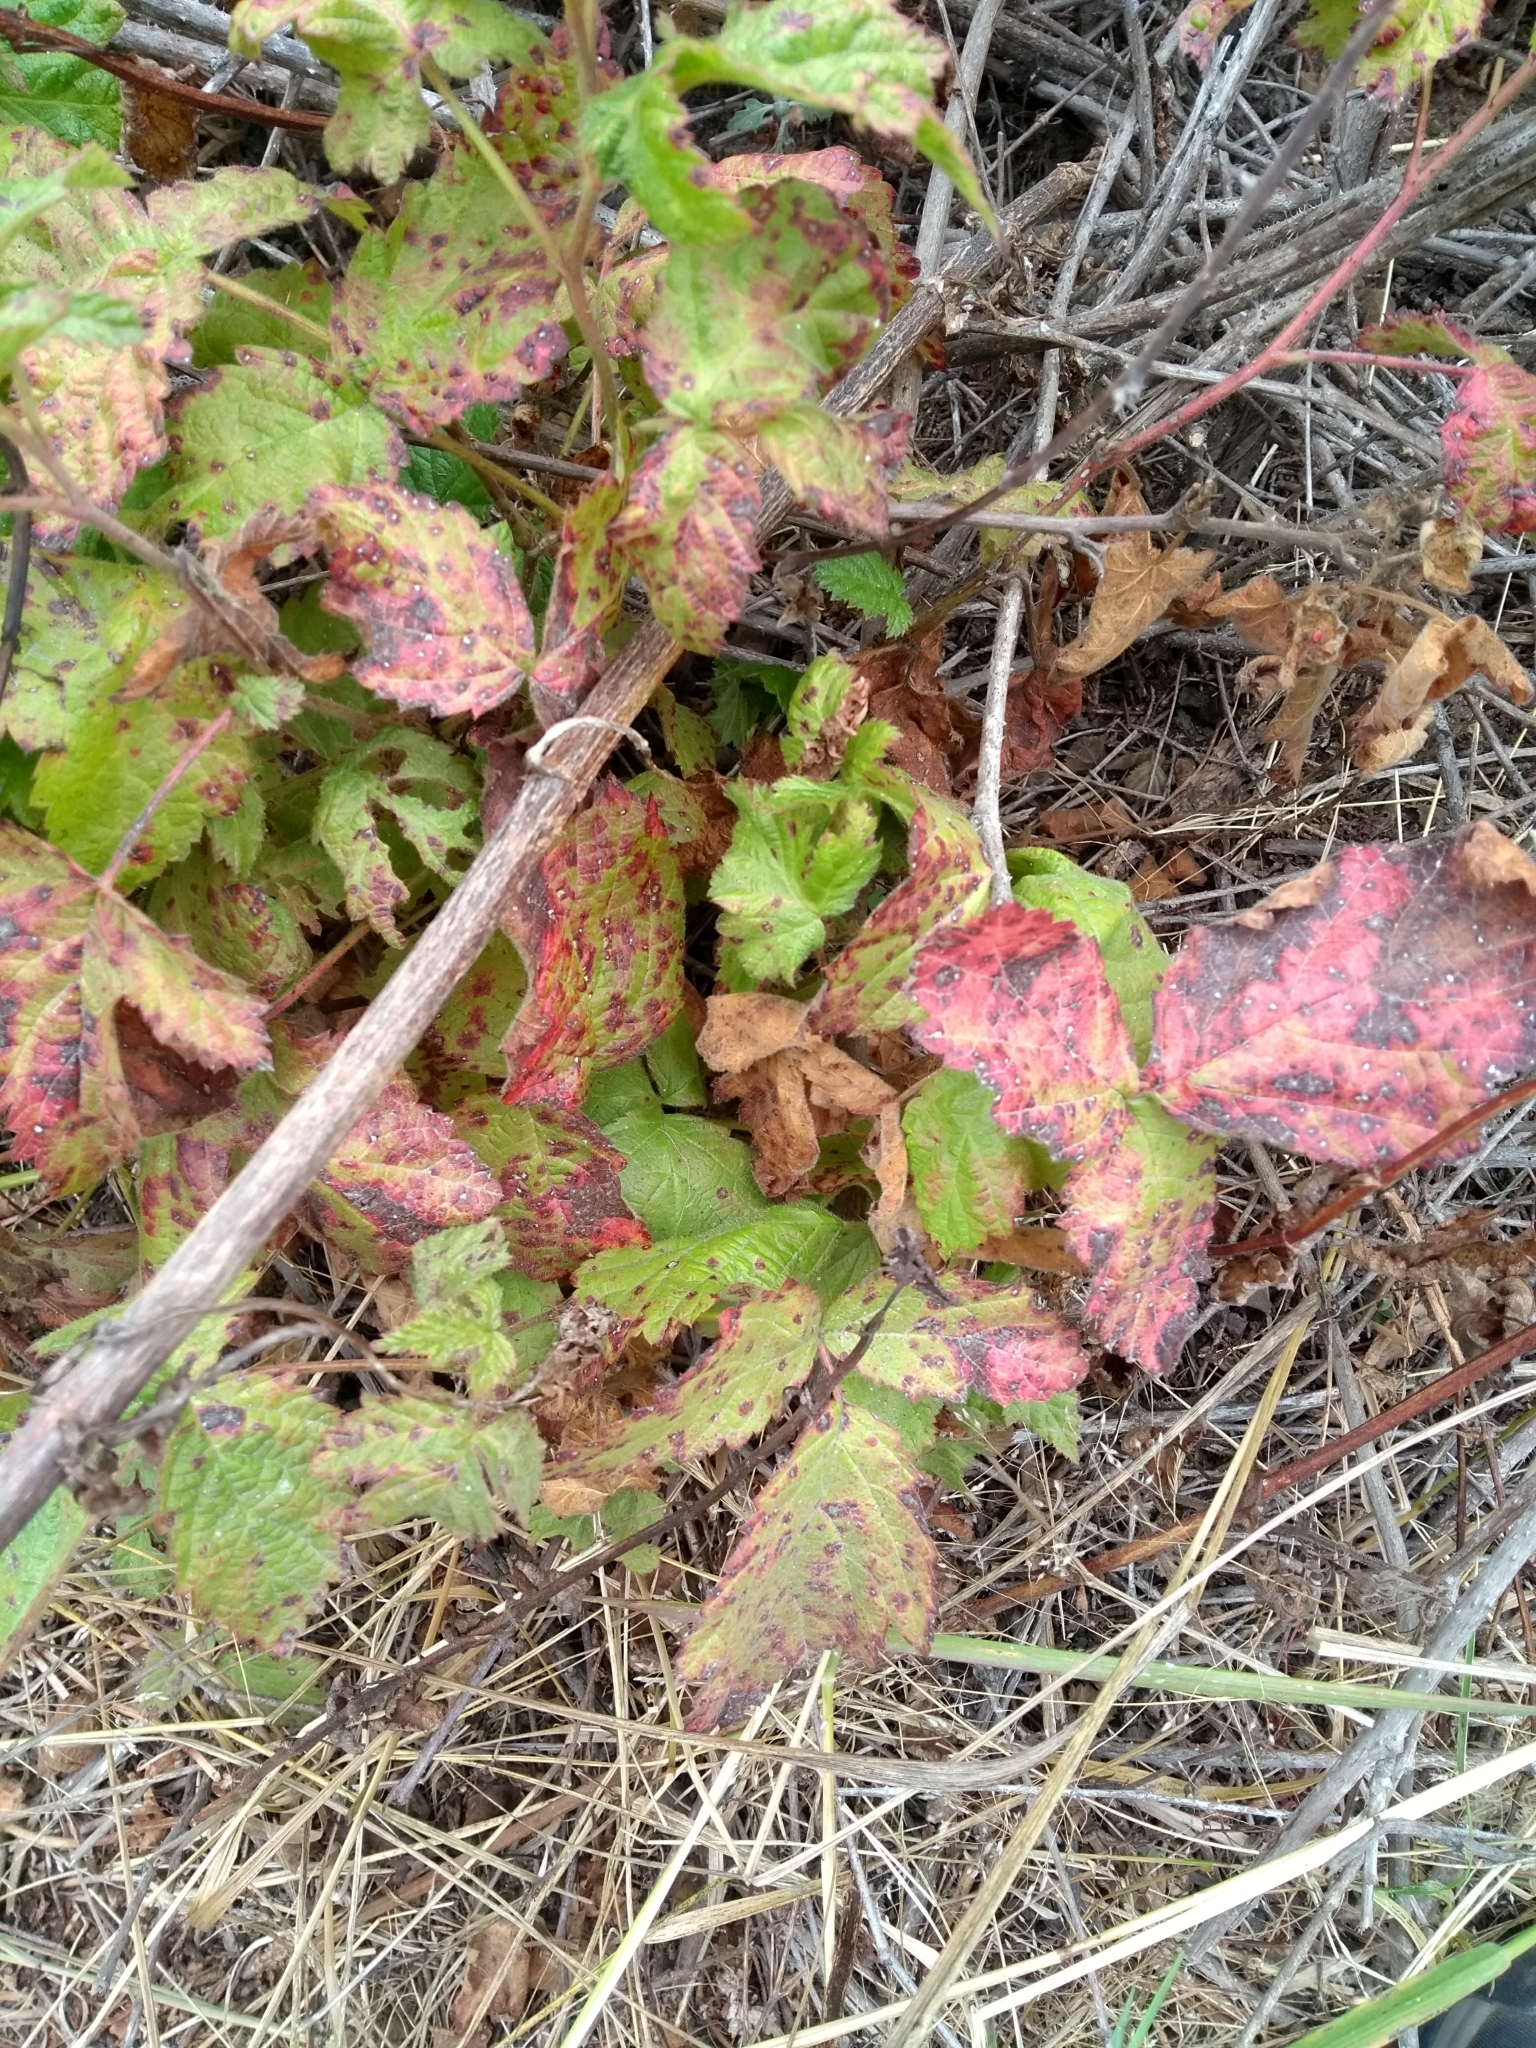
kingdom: Plantae
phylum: Tracheophyta
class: Magnoliopsida
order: Rosales
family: Rosaceae
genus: Rubus
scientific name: Rubus ursinus
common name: Pacific blackberry
